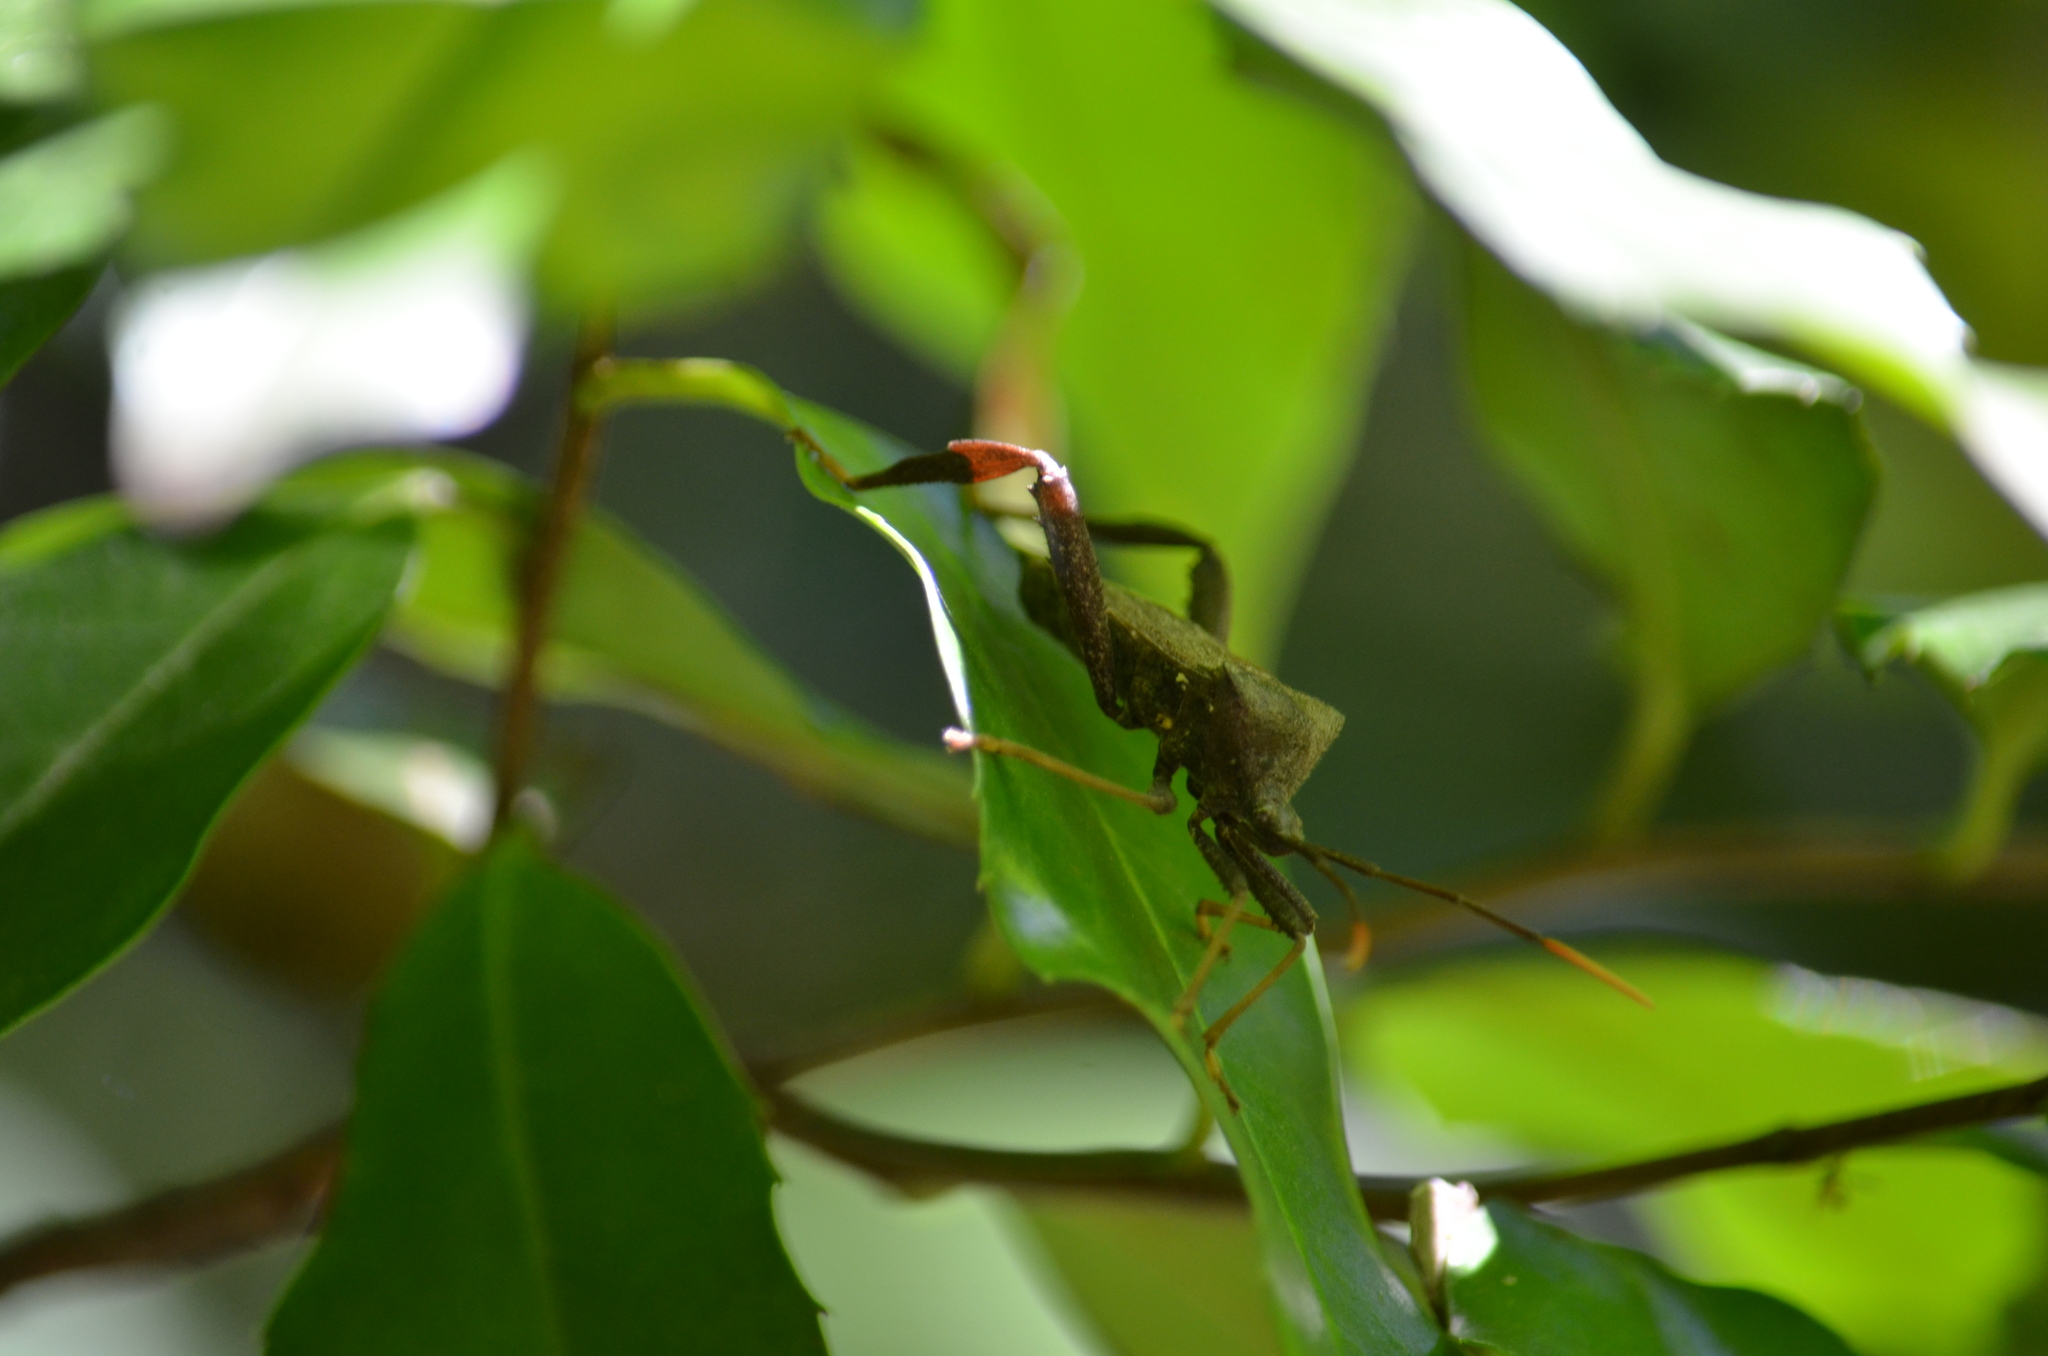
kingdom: Animalia
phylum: Arthropoda
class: Insecta
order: Hemiptera
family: Coreidae
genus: Acanthocephala
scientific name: Acanthocephala terminalis
